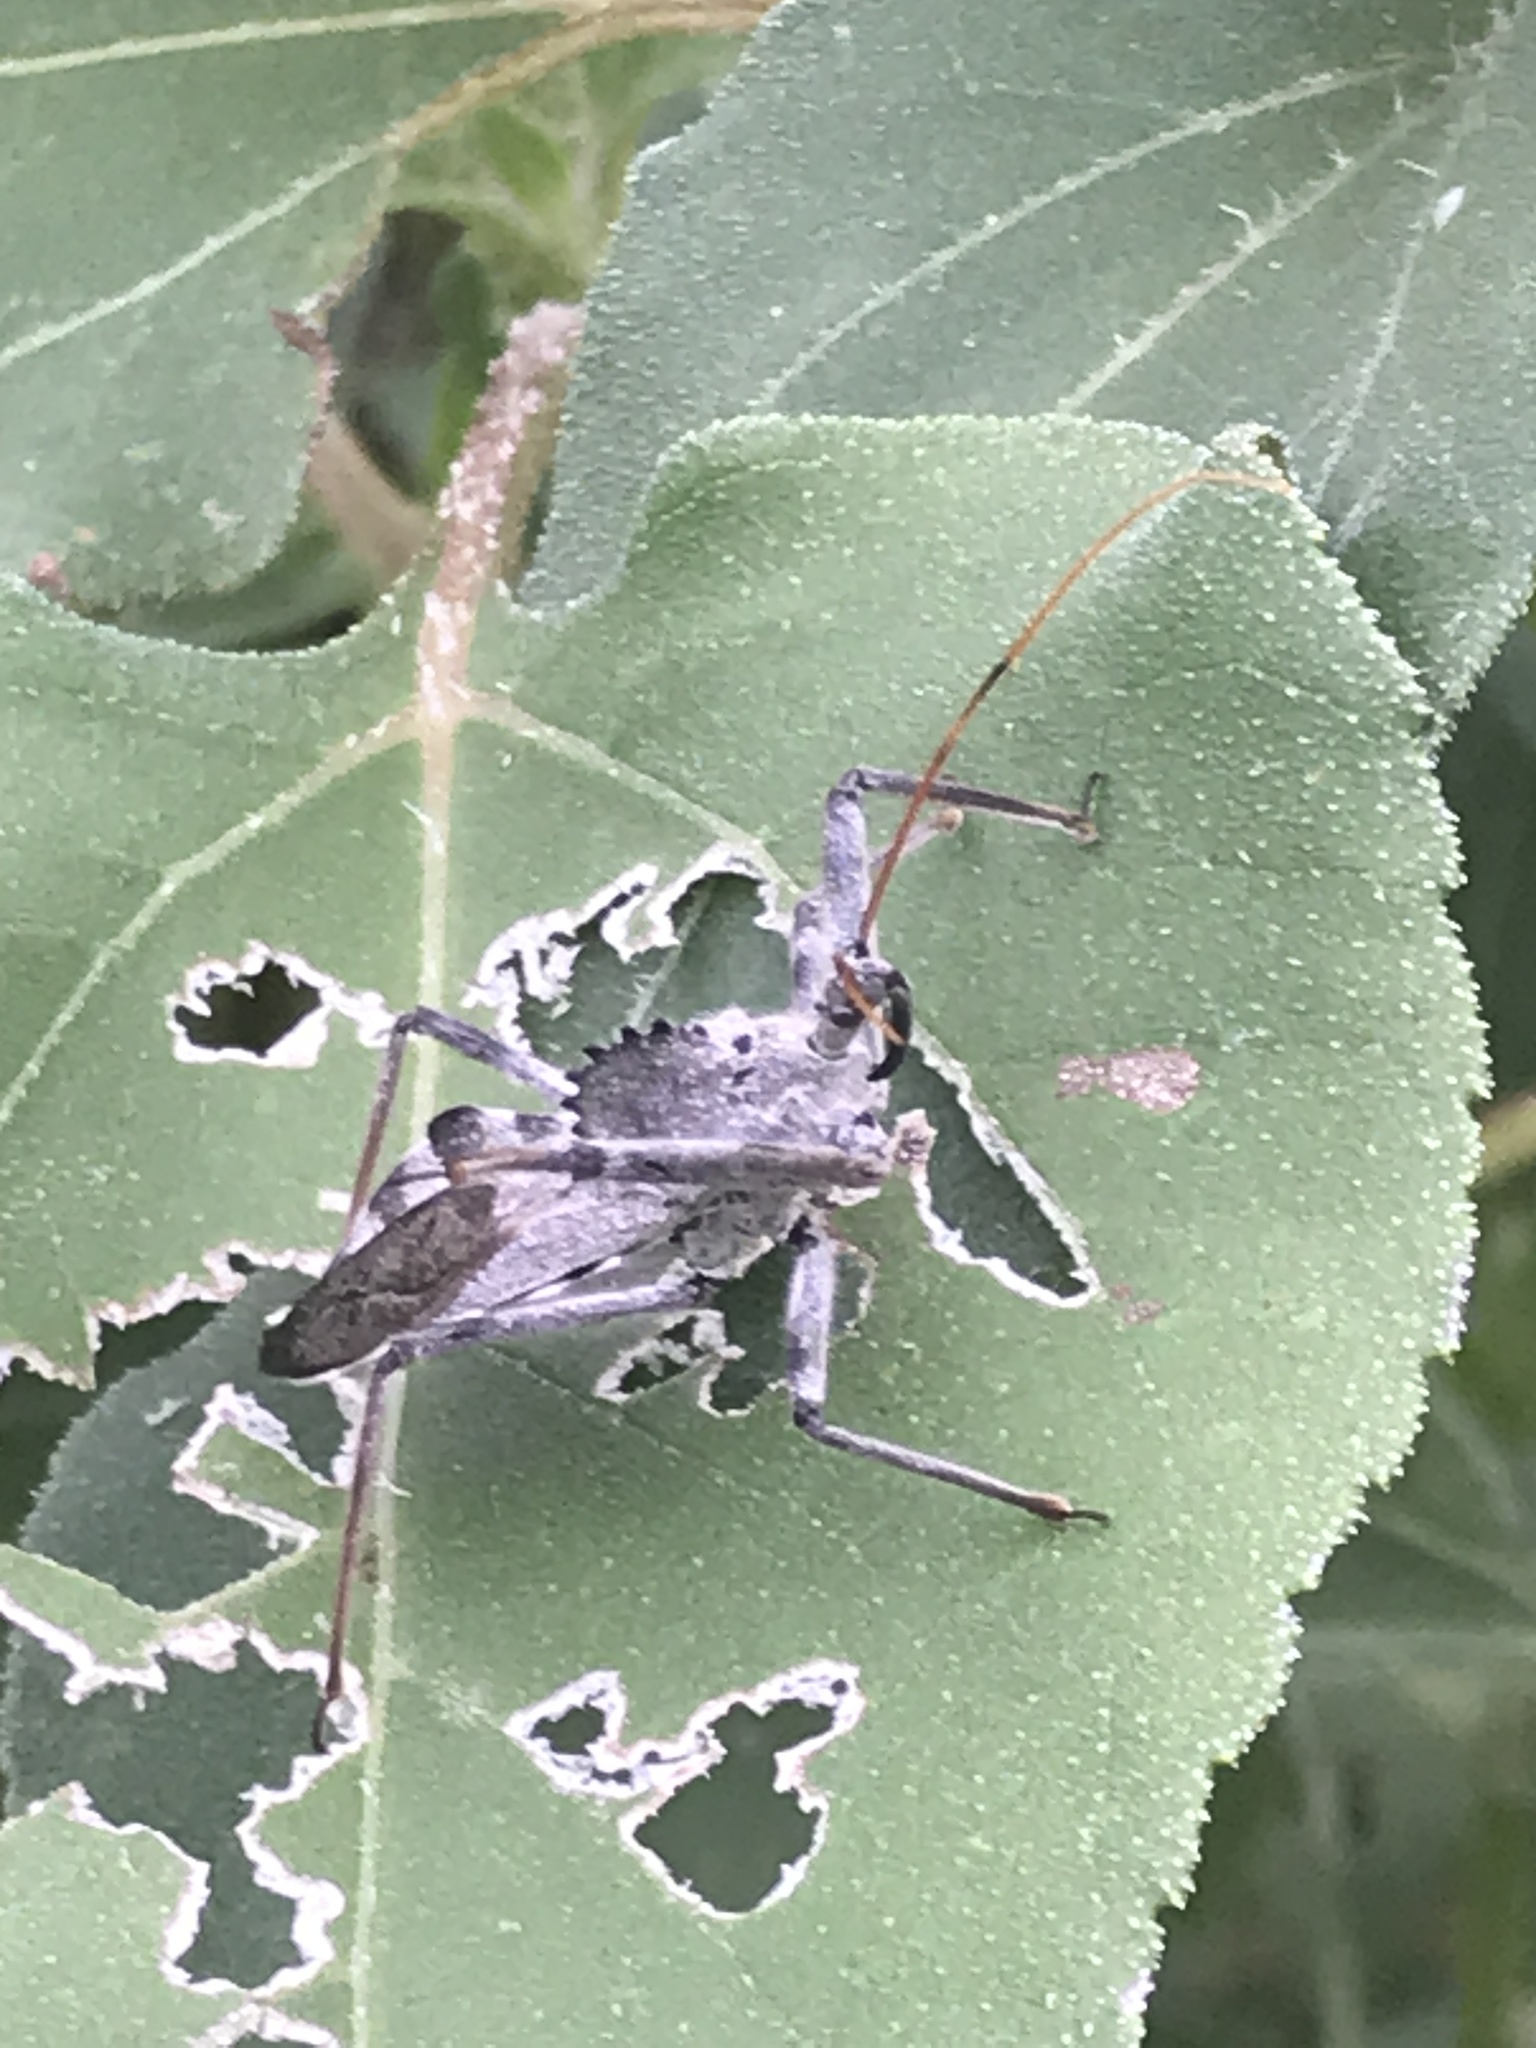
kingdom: Animalia
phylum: Arthropoda
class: Insecta
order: Hemiptera
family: Reduviidae
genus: Arilus
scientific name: Arilus cristatus
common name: North american wheel bug
